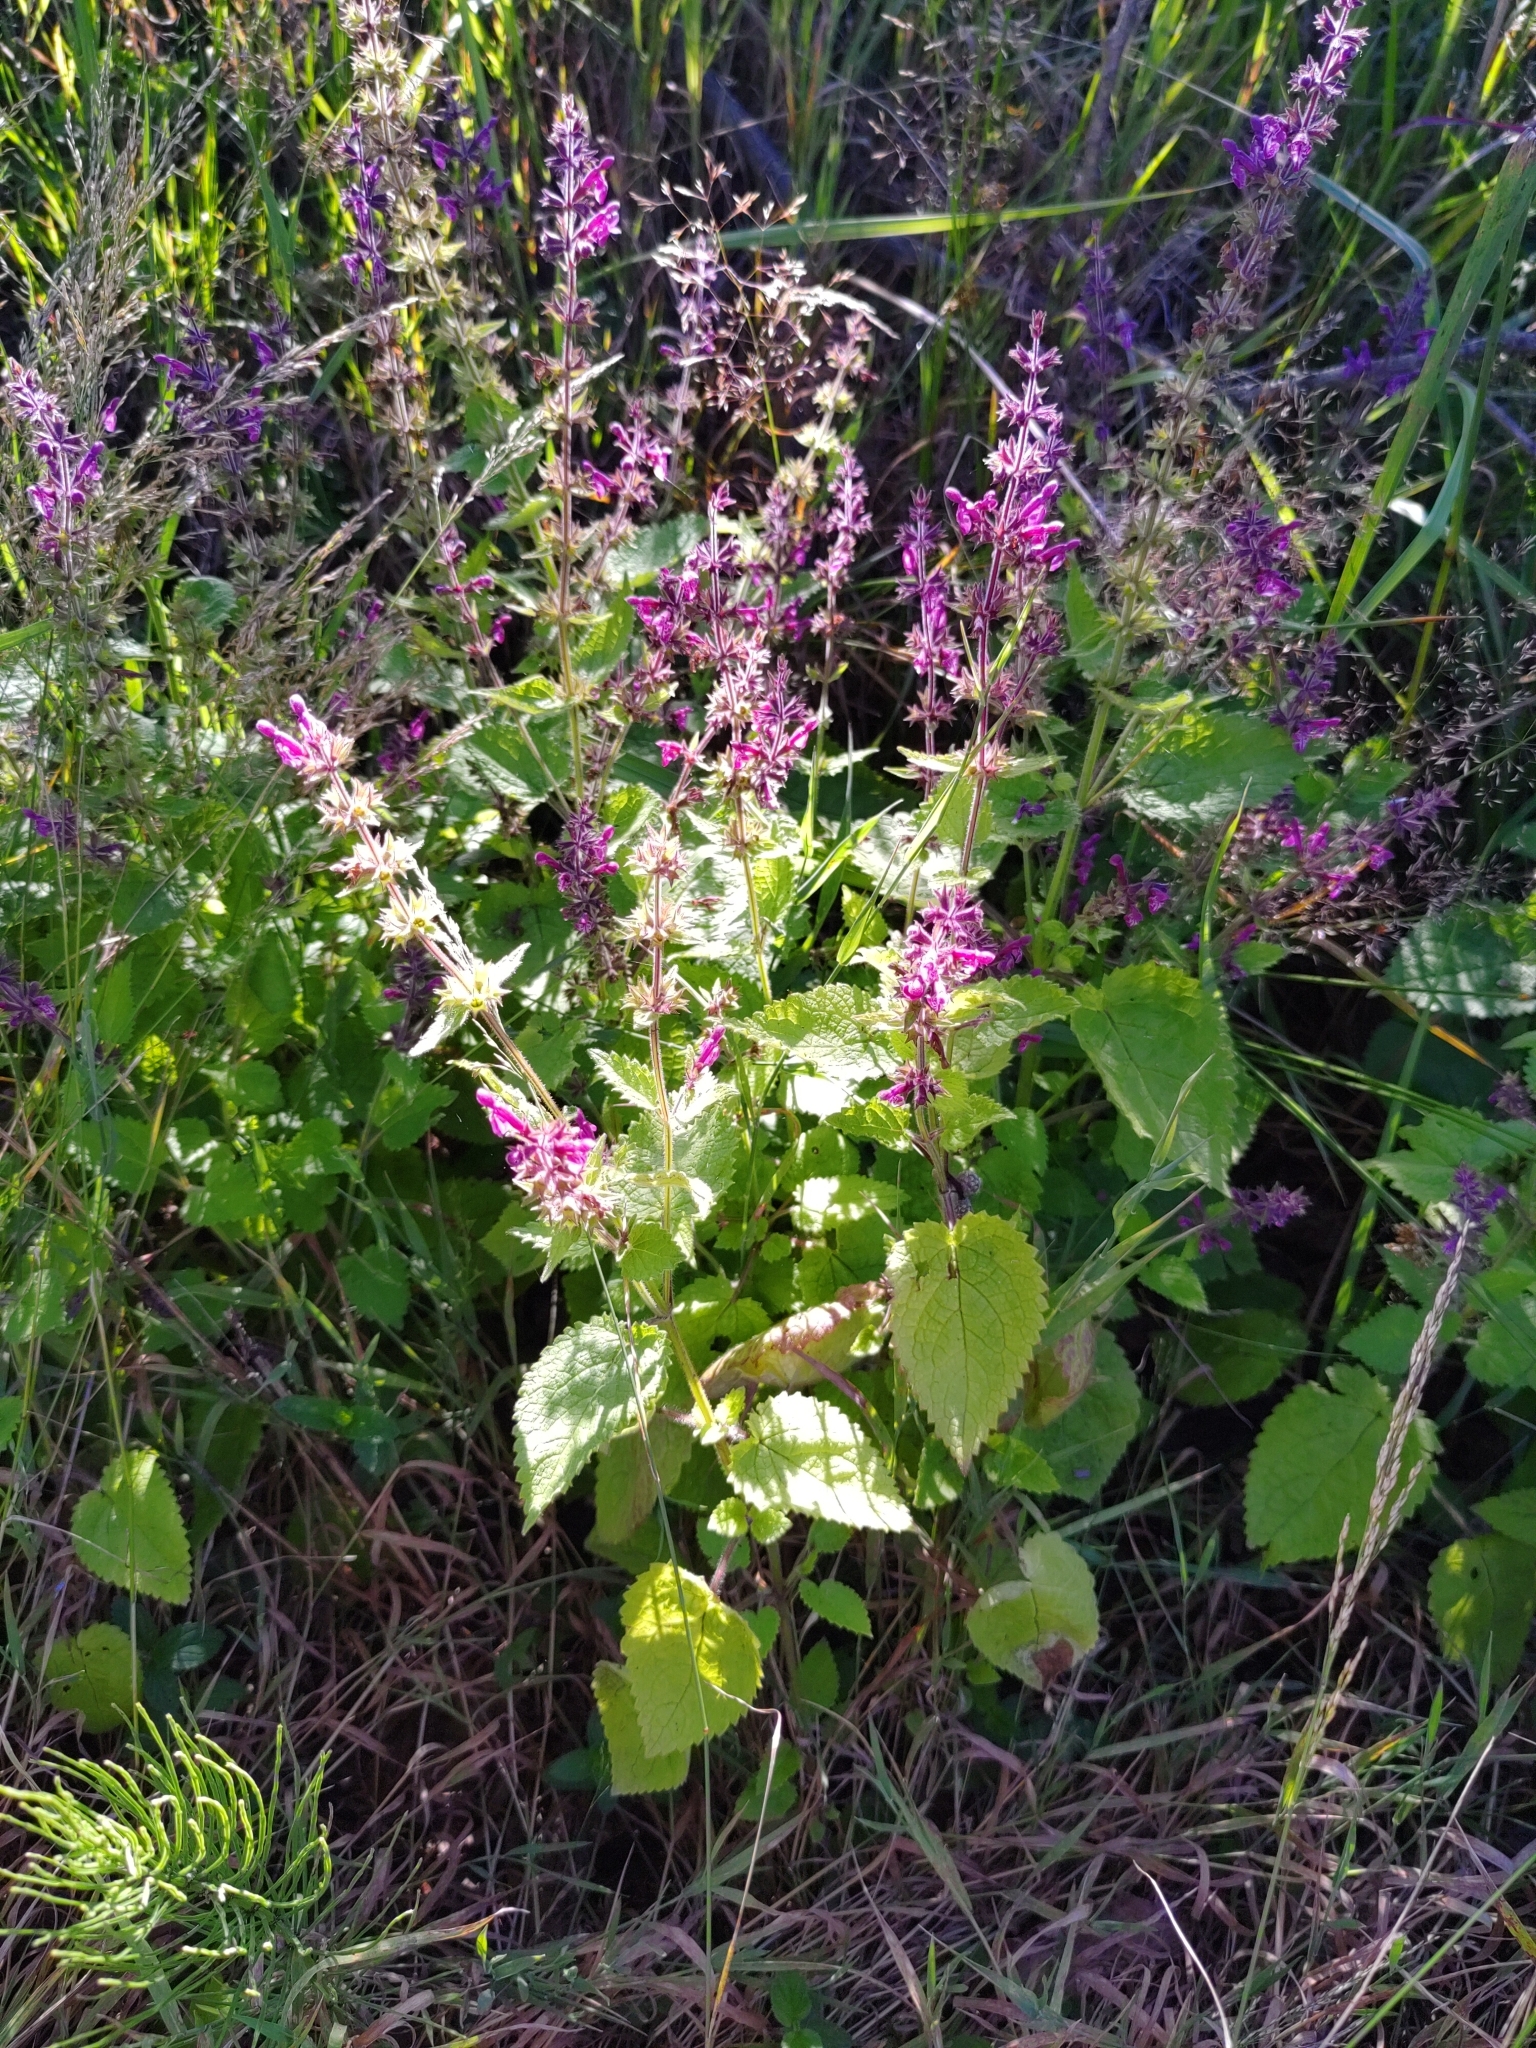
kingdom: Plantae
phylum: Tracheophyta
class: Magnoliopsida
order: Lamiales
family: Lamiaceae
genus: Stachys
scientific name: Stachys sylvatica
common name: Hedge woundwort
